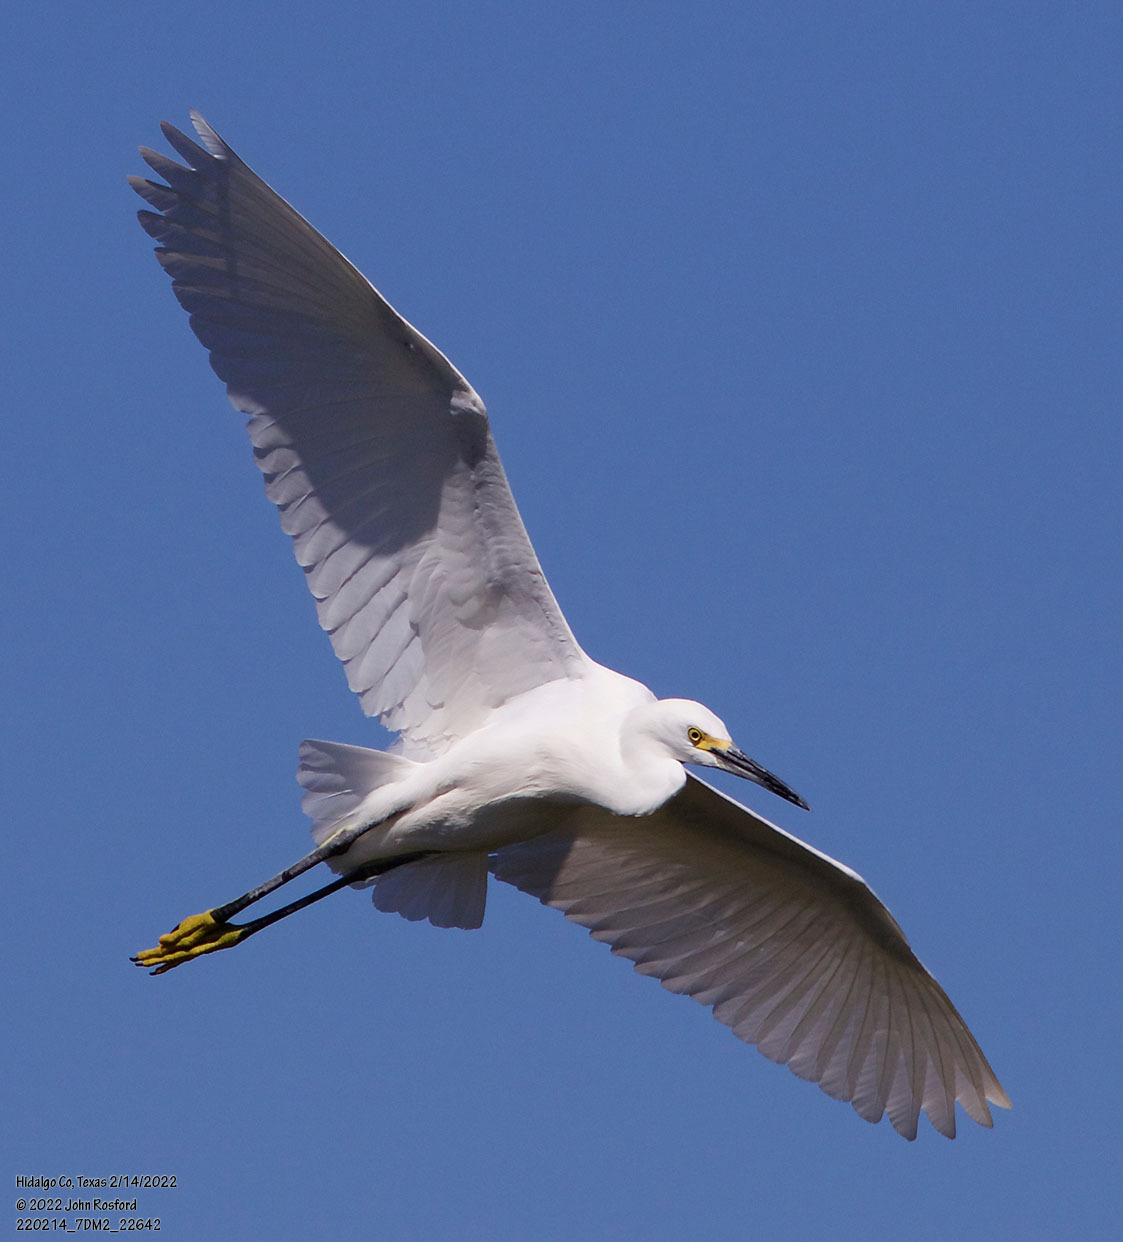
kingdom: Animalia
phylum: Chordata
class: Aves
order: Pelecaniformes
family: Ardeidae
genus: Egretta
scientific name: Egretta thula
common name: Snowy egret
